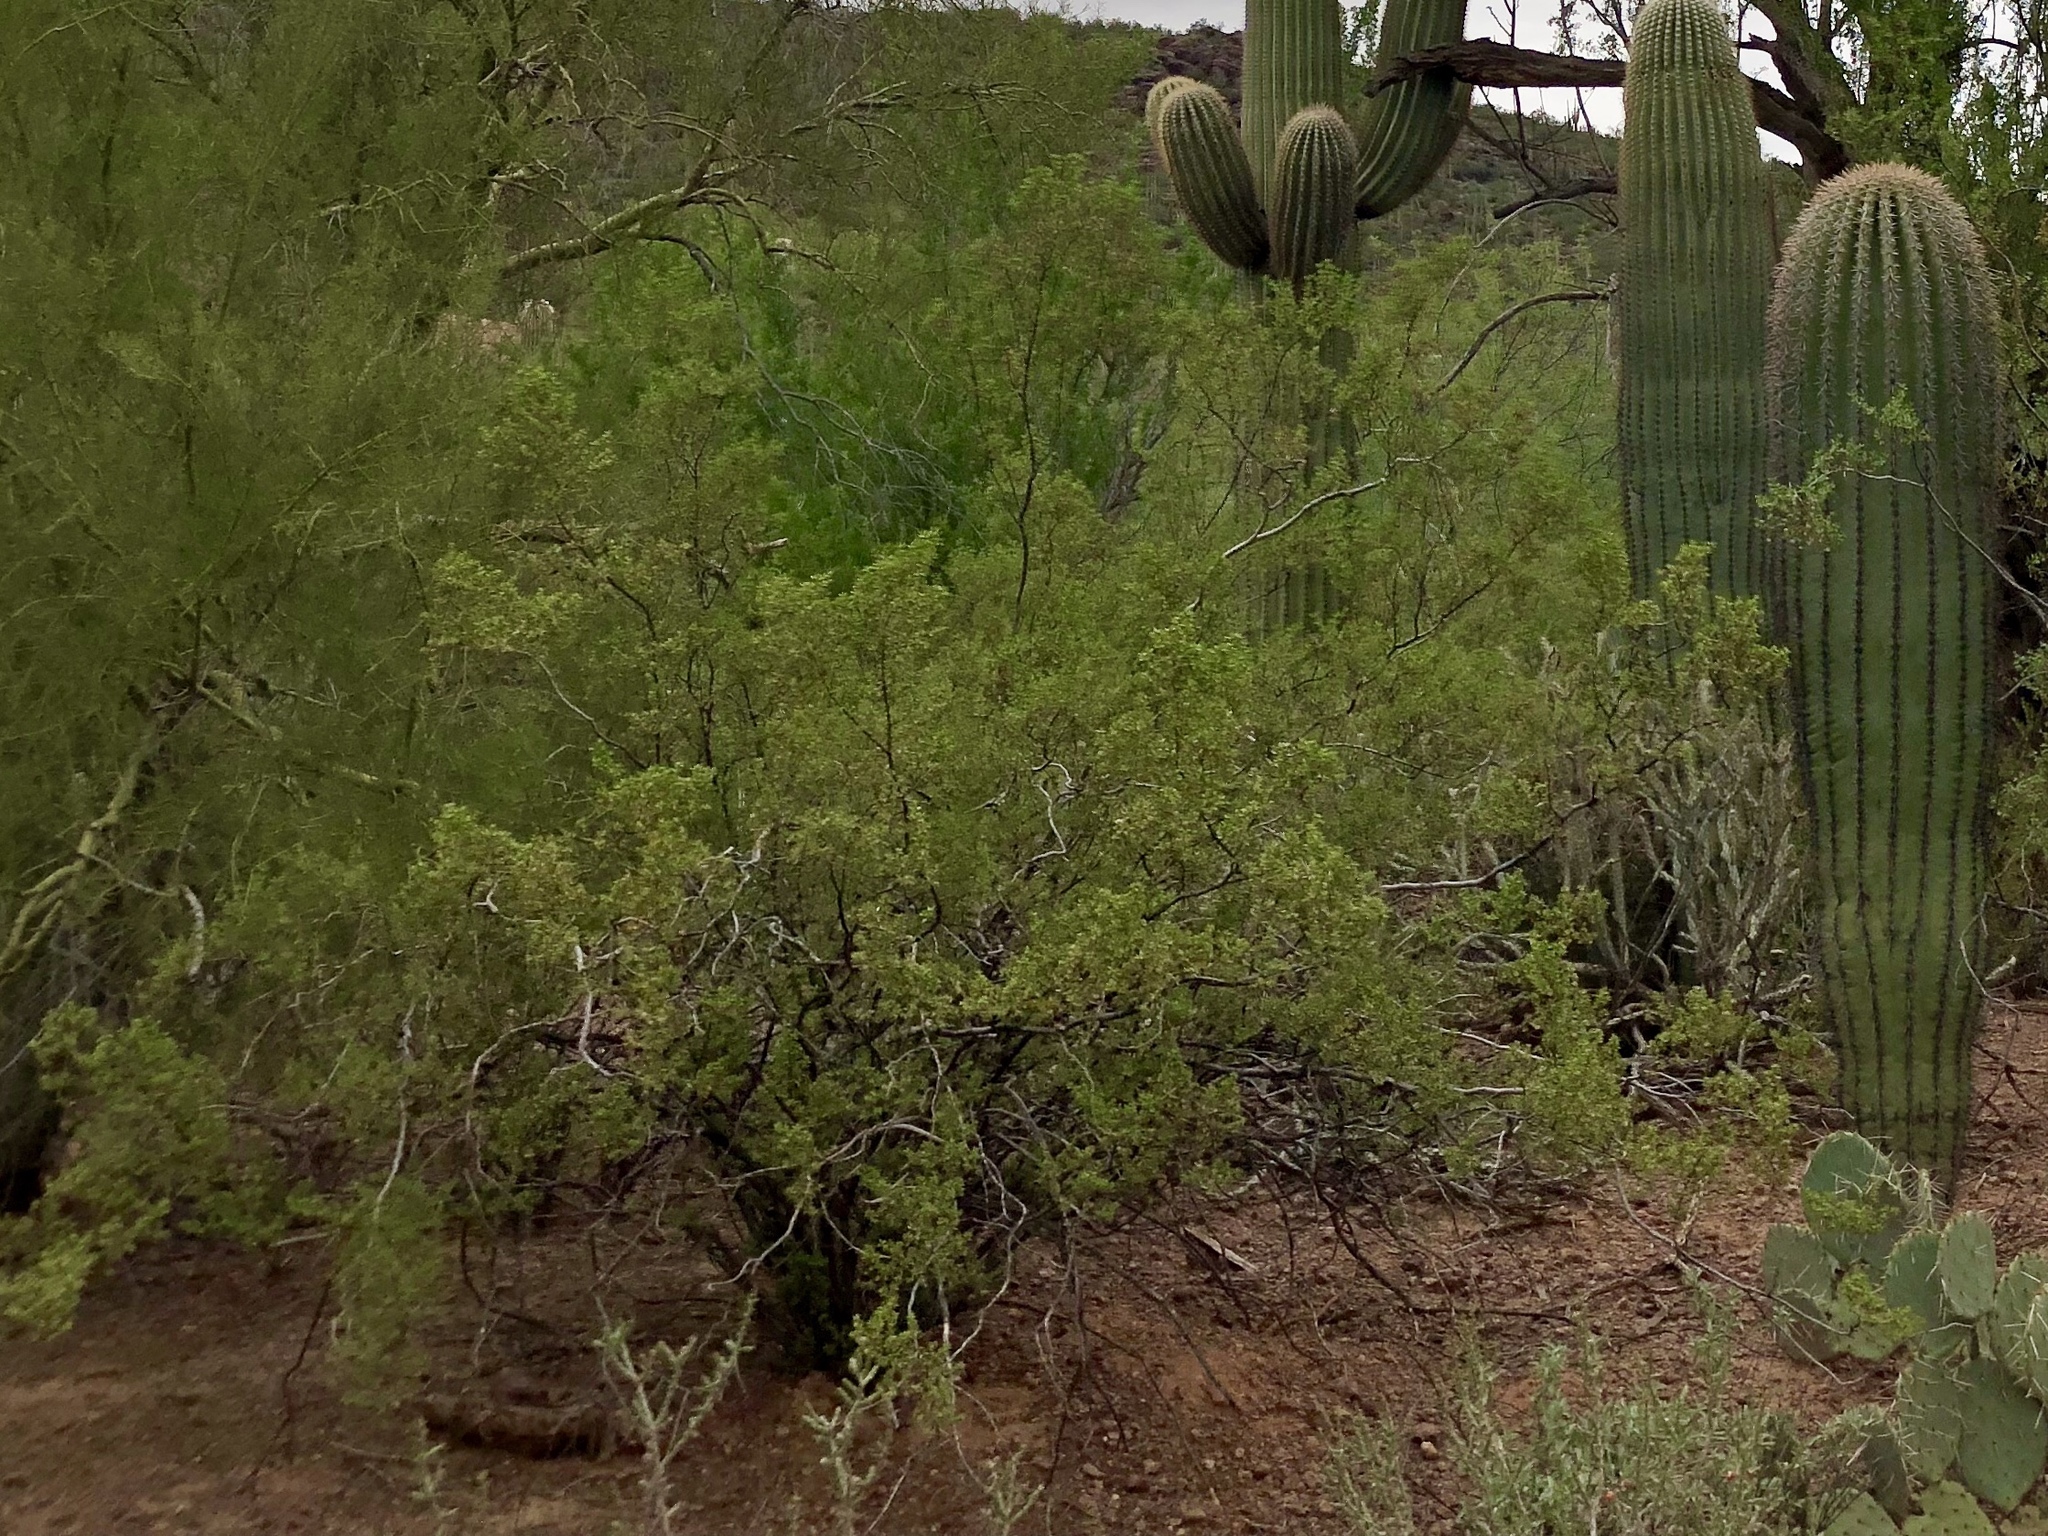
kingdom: Plantae
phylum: Tracheophyta
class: Magnoliopsida
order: Zygophyllales
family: Zygophyllaceae
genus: Larrea
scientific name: Larrea tridentata
